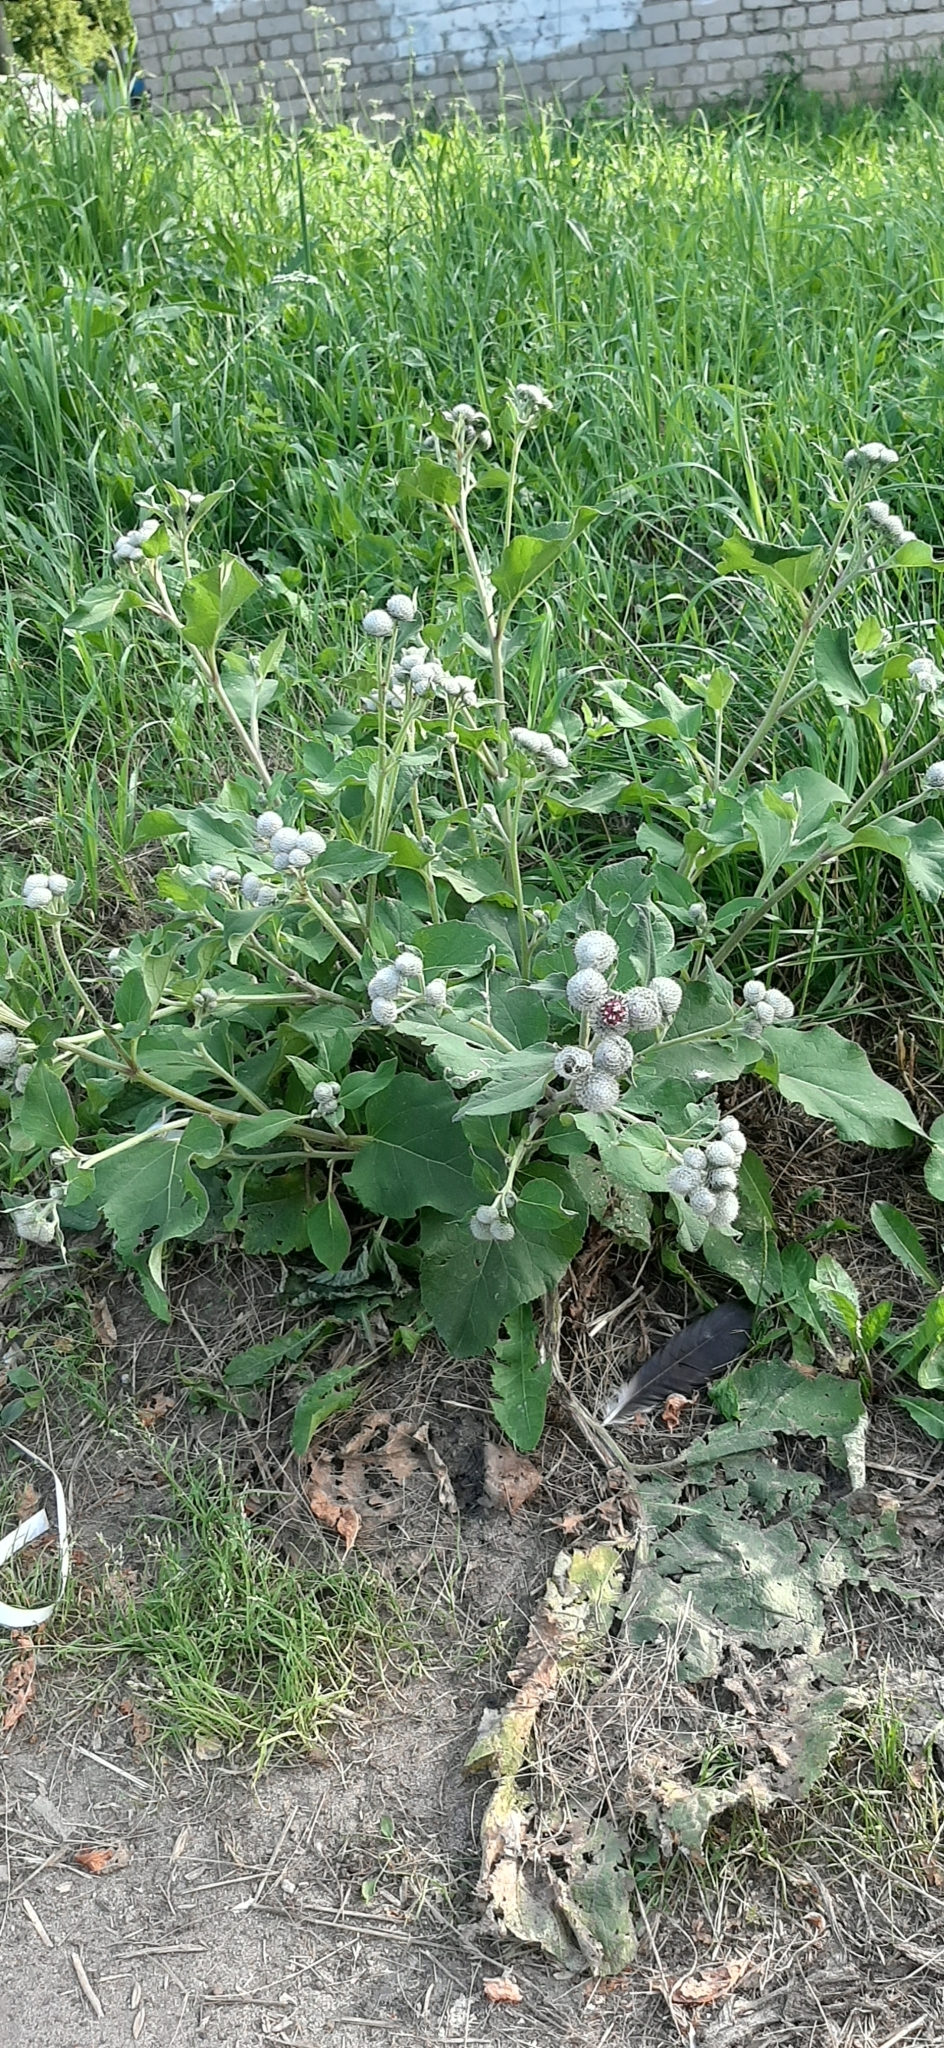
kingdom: Plantae
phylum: Tracheophyta
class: Magnoliopsida
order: Asterales
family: Asteraceae
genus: Arctium
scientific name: Arctium tomentosum
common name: Woolly burdock
